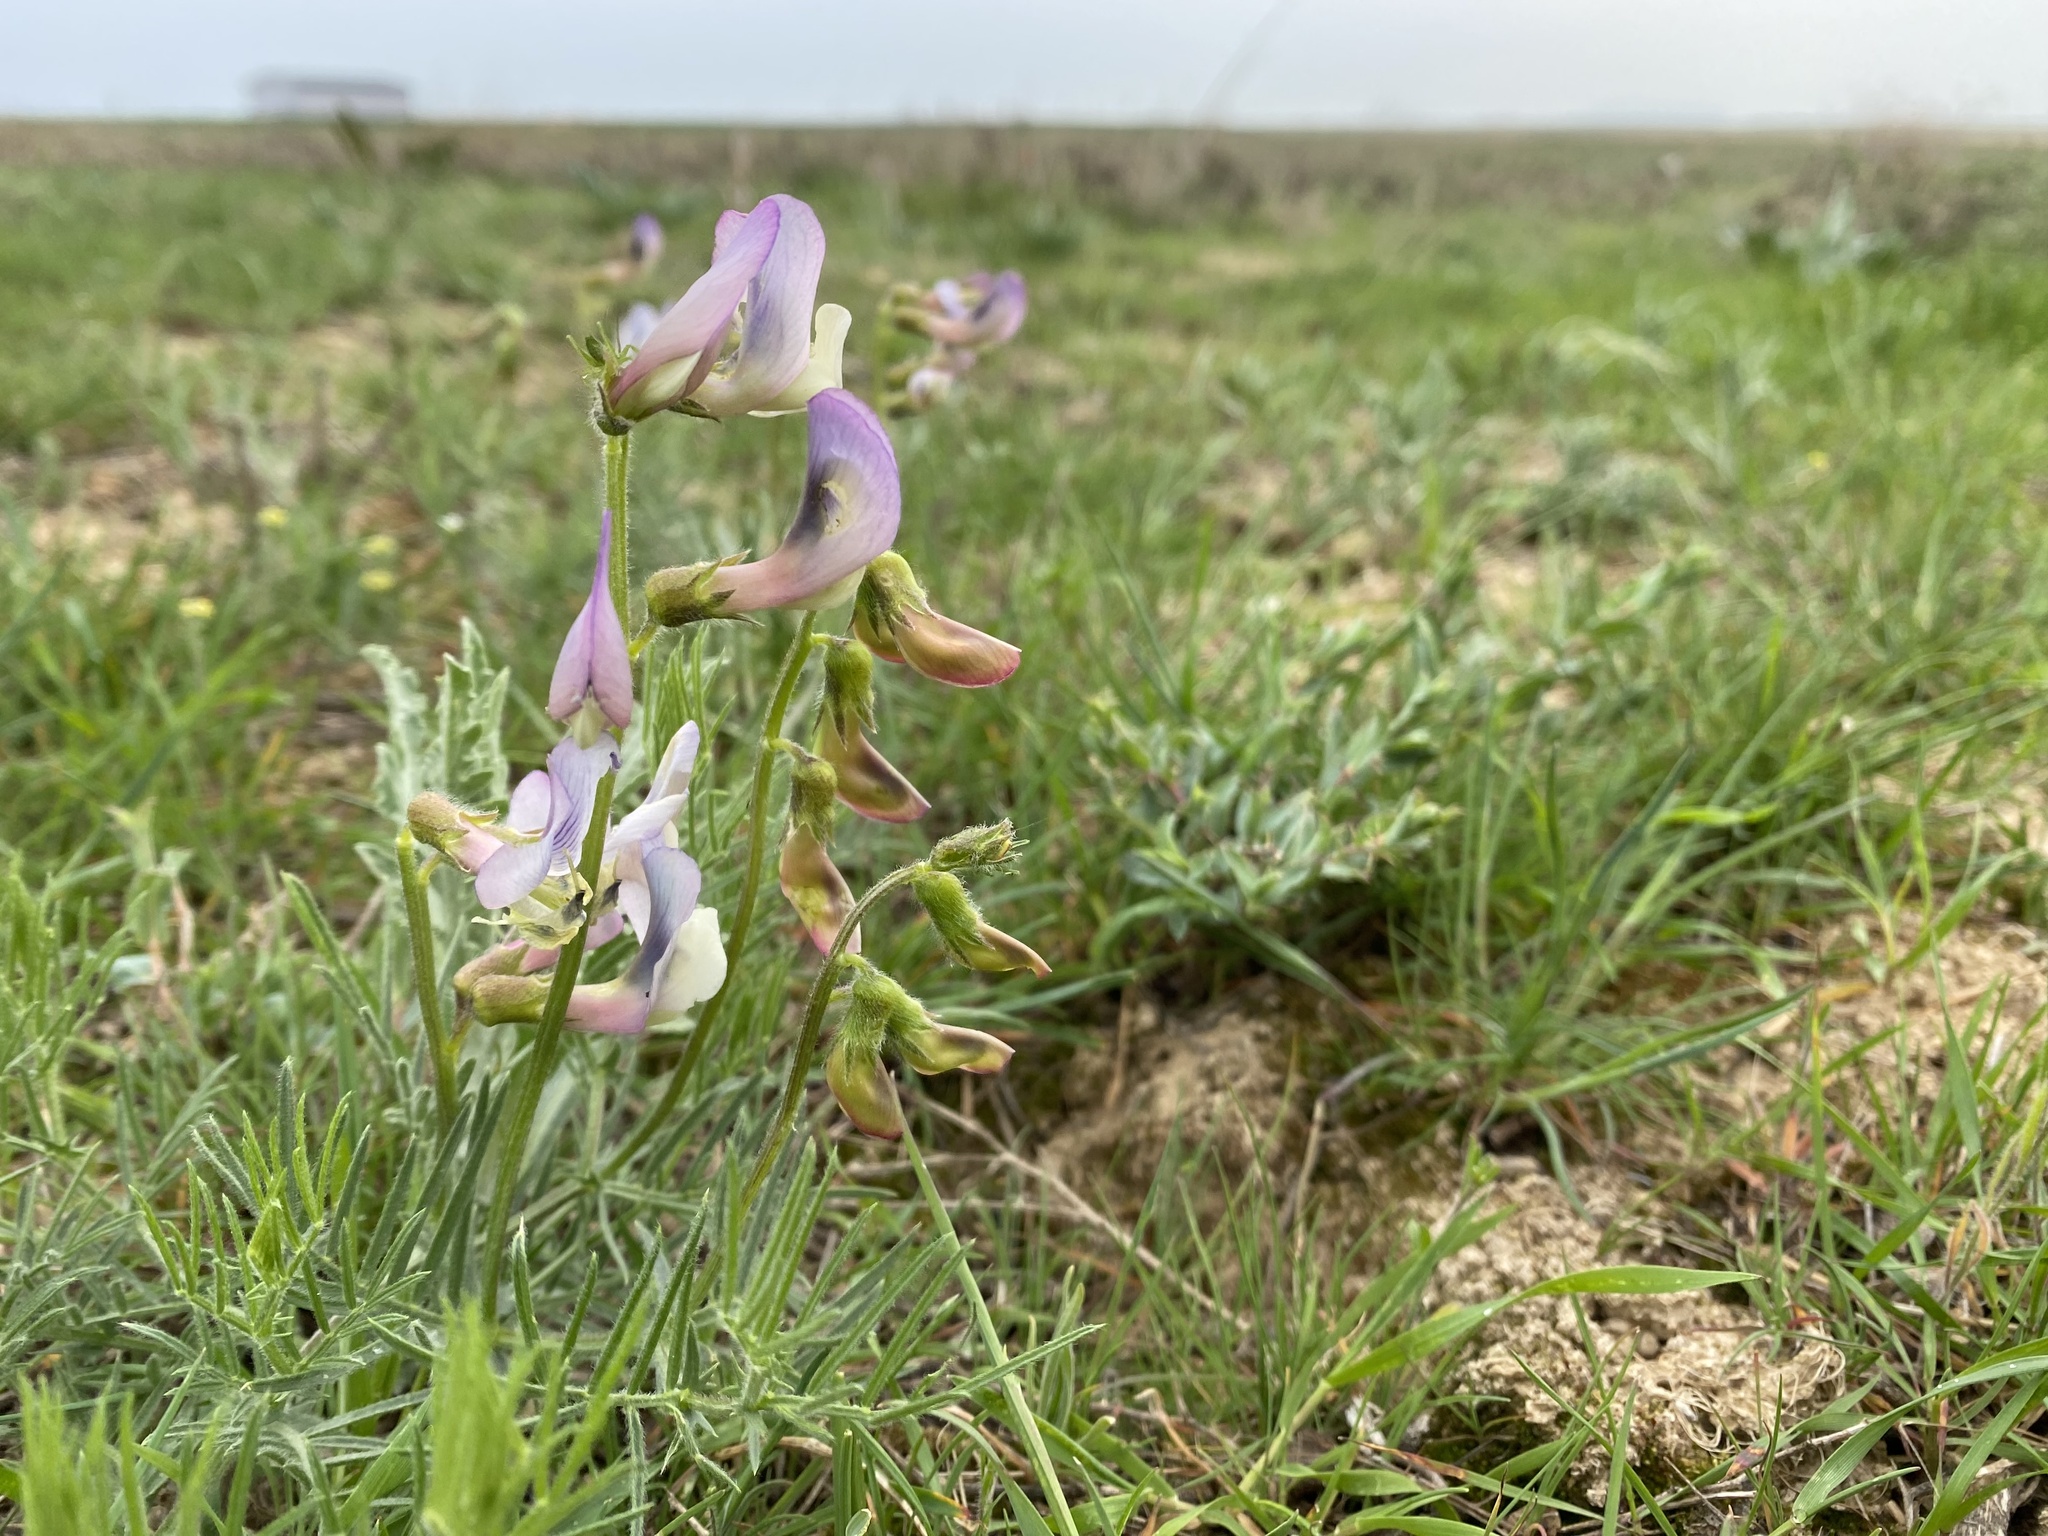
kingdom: Plantae
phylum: Tracheophyta
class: Magnoliopsida
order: Fabales
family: Fabaceae
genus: Vicia
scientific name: Vicia subvillosa
